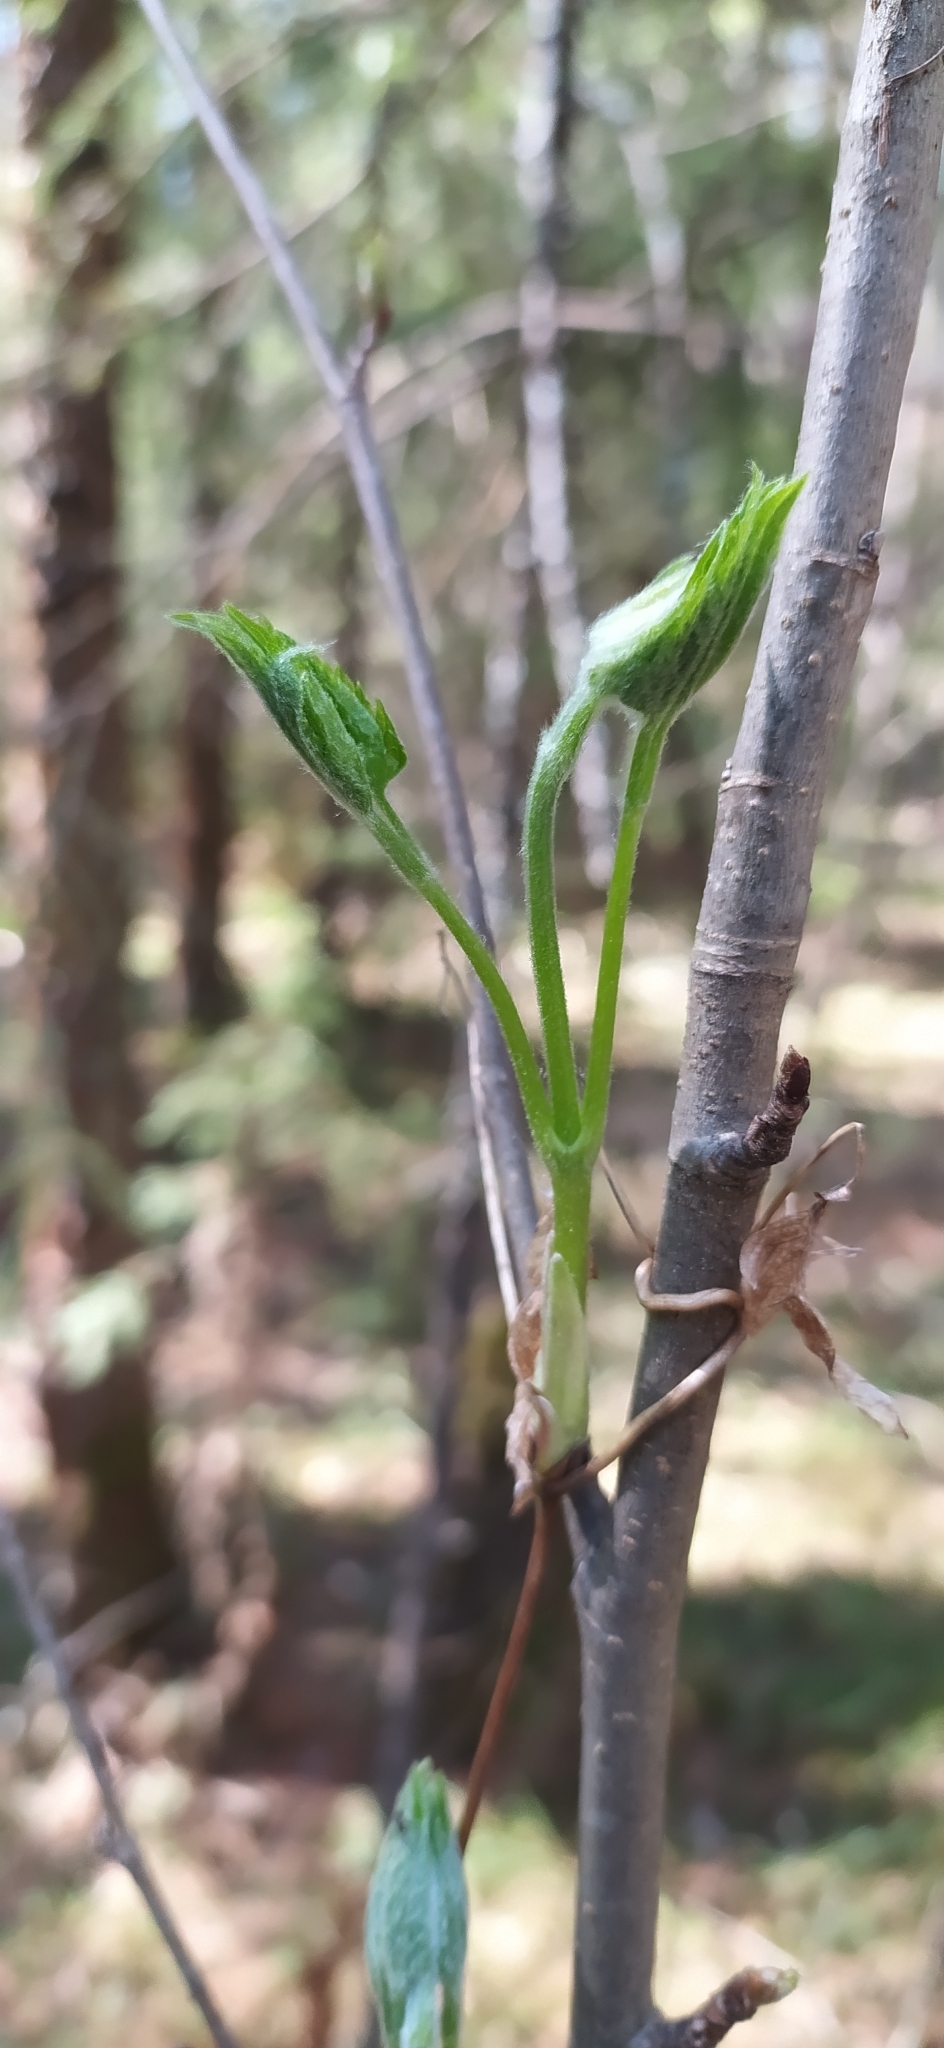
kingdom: Plantae
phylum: Tracheophyta
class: Magnoliopsida
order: Ranunculales
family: Ranunculaceae
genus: Clematis
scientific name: Clematis sibirica
